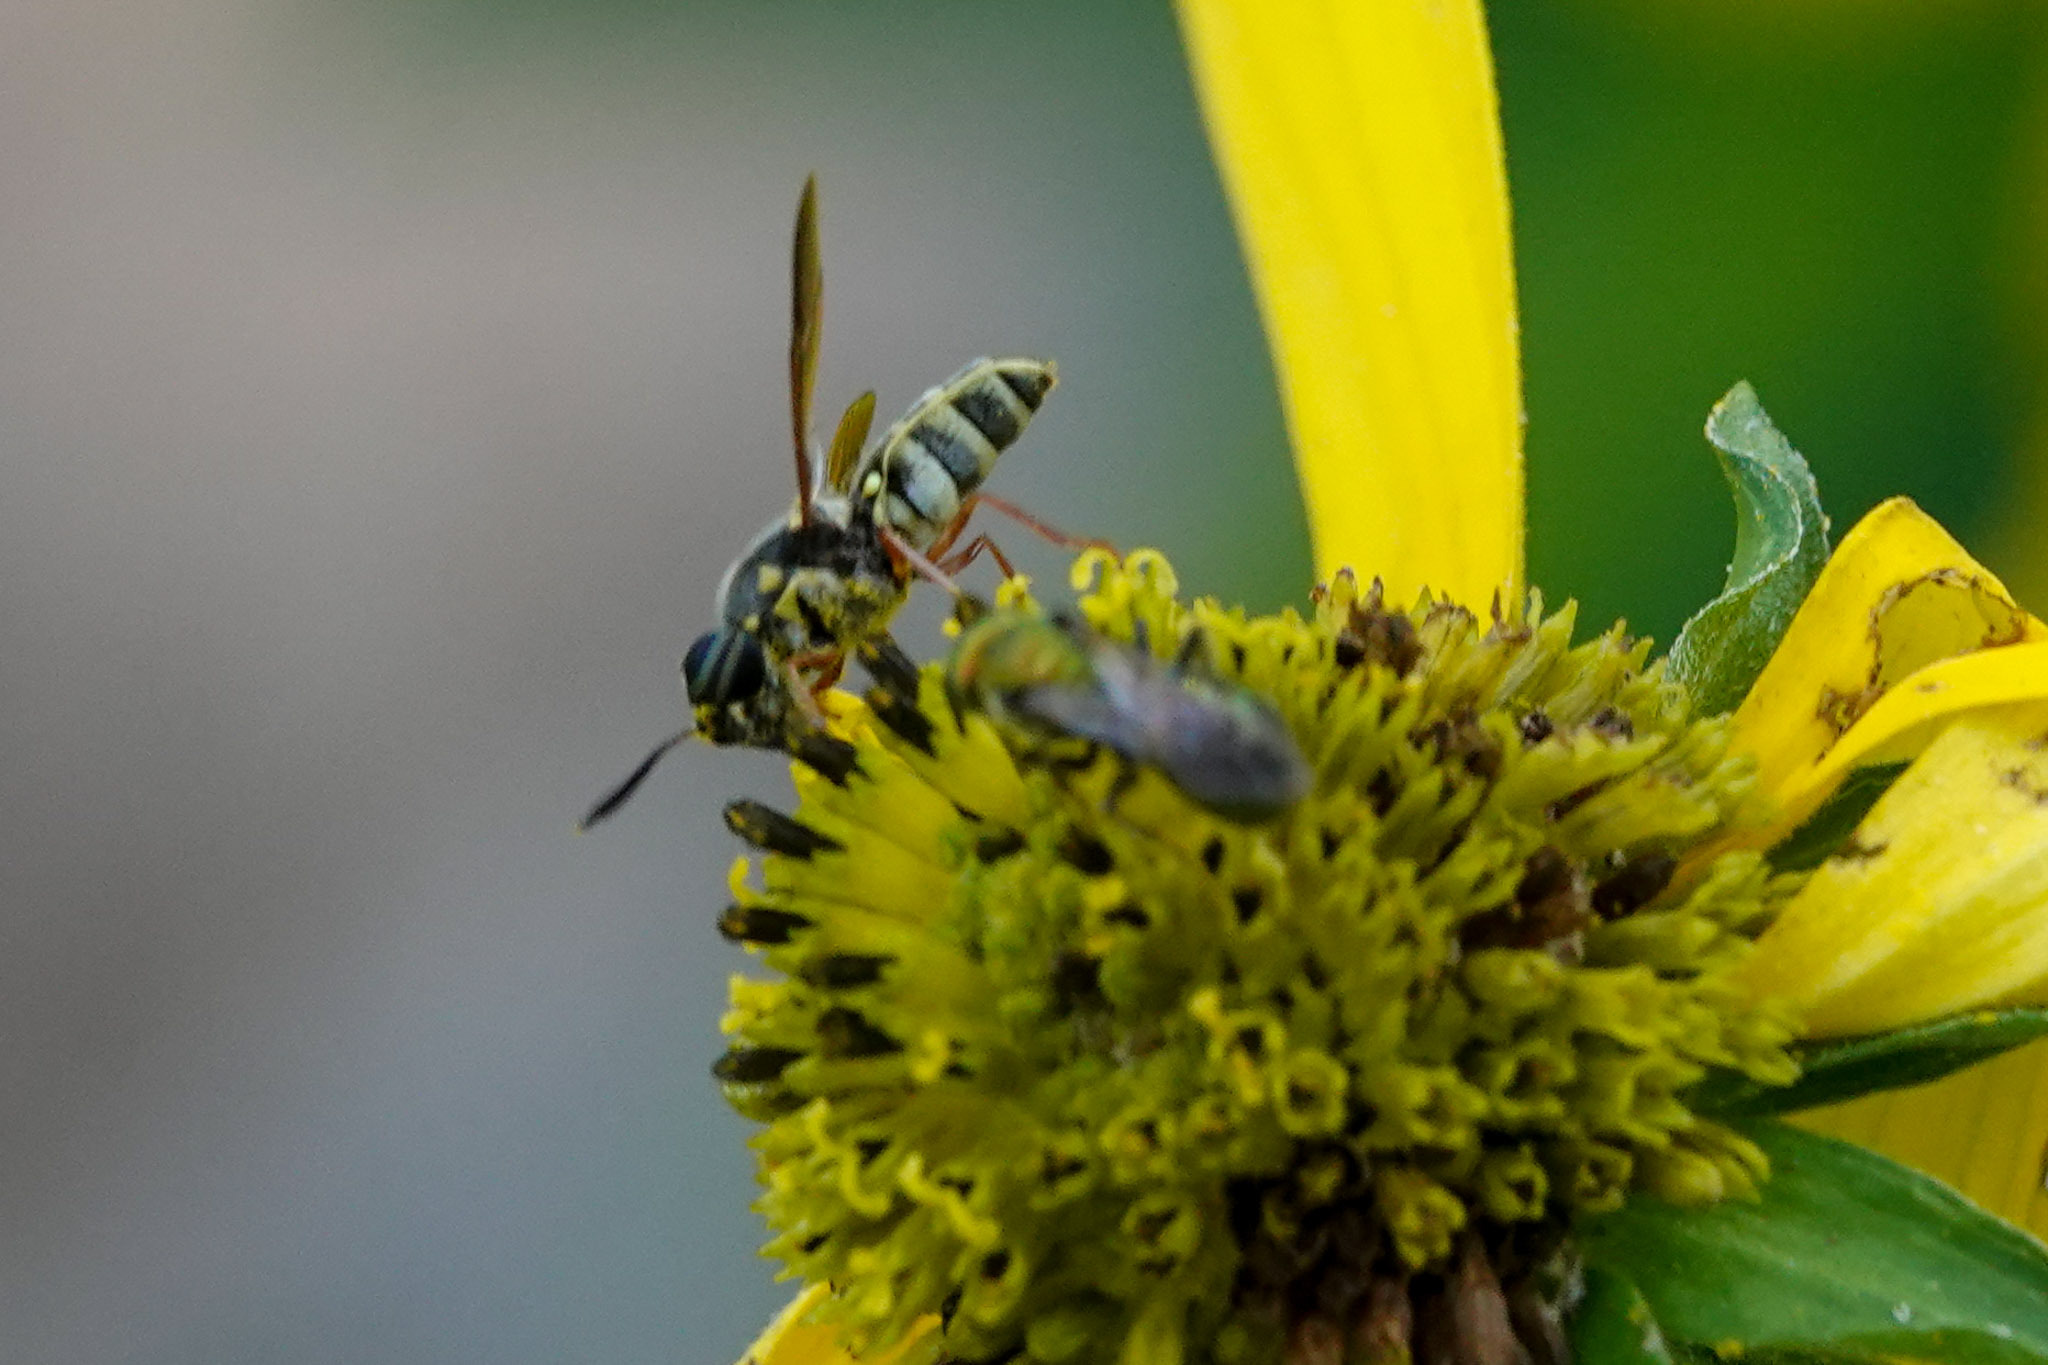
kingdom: Animalia
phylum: Arthropoda
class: Insecta
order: Diptera
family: Stratiomyidae
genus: Hoplitimyia
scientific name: Hoplitimyia constans
